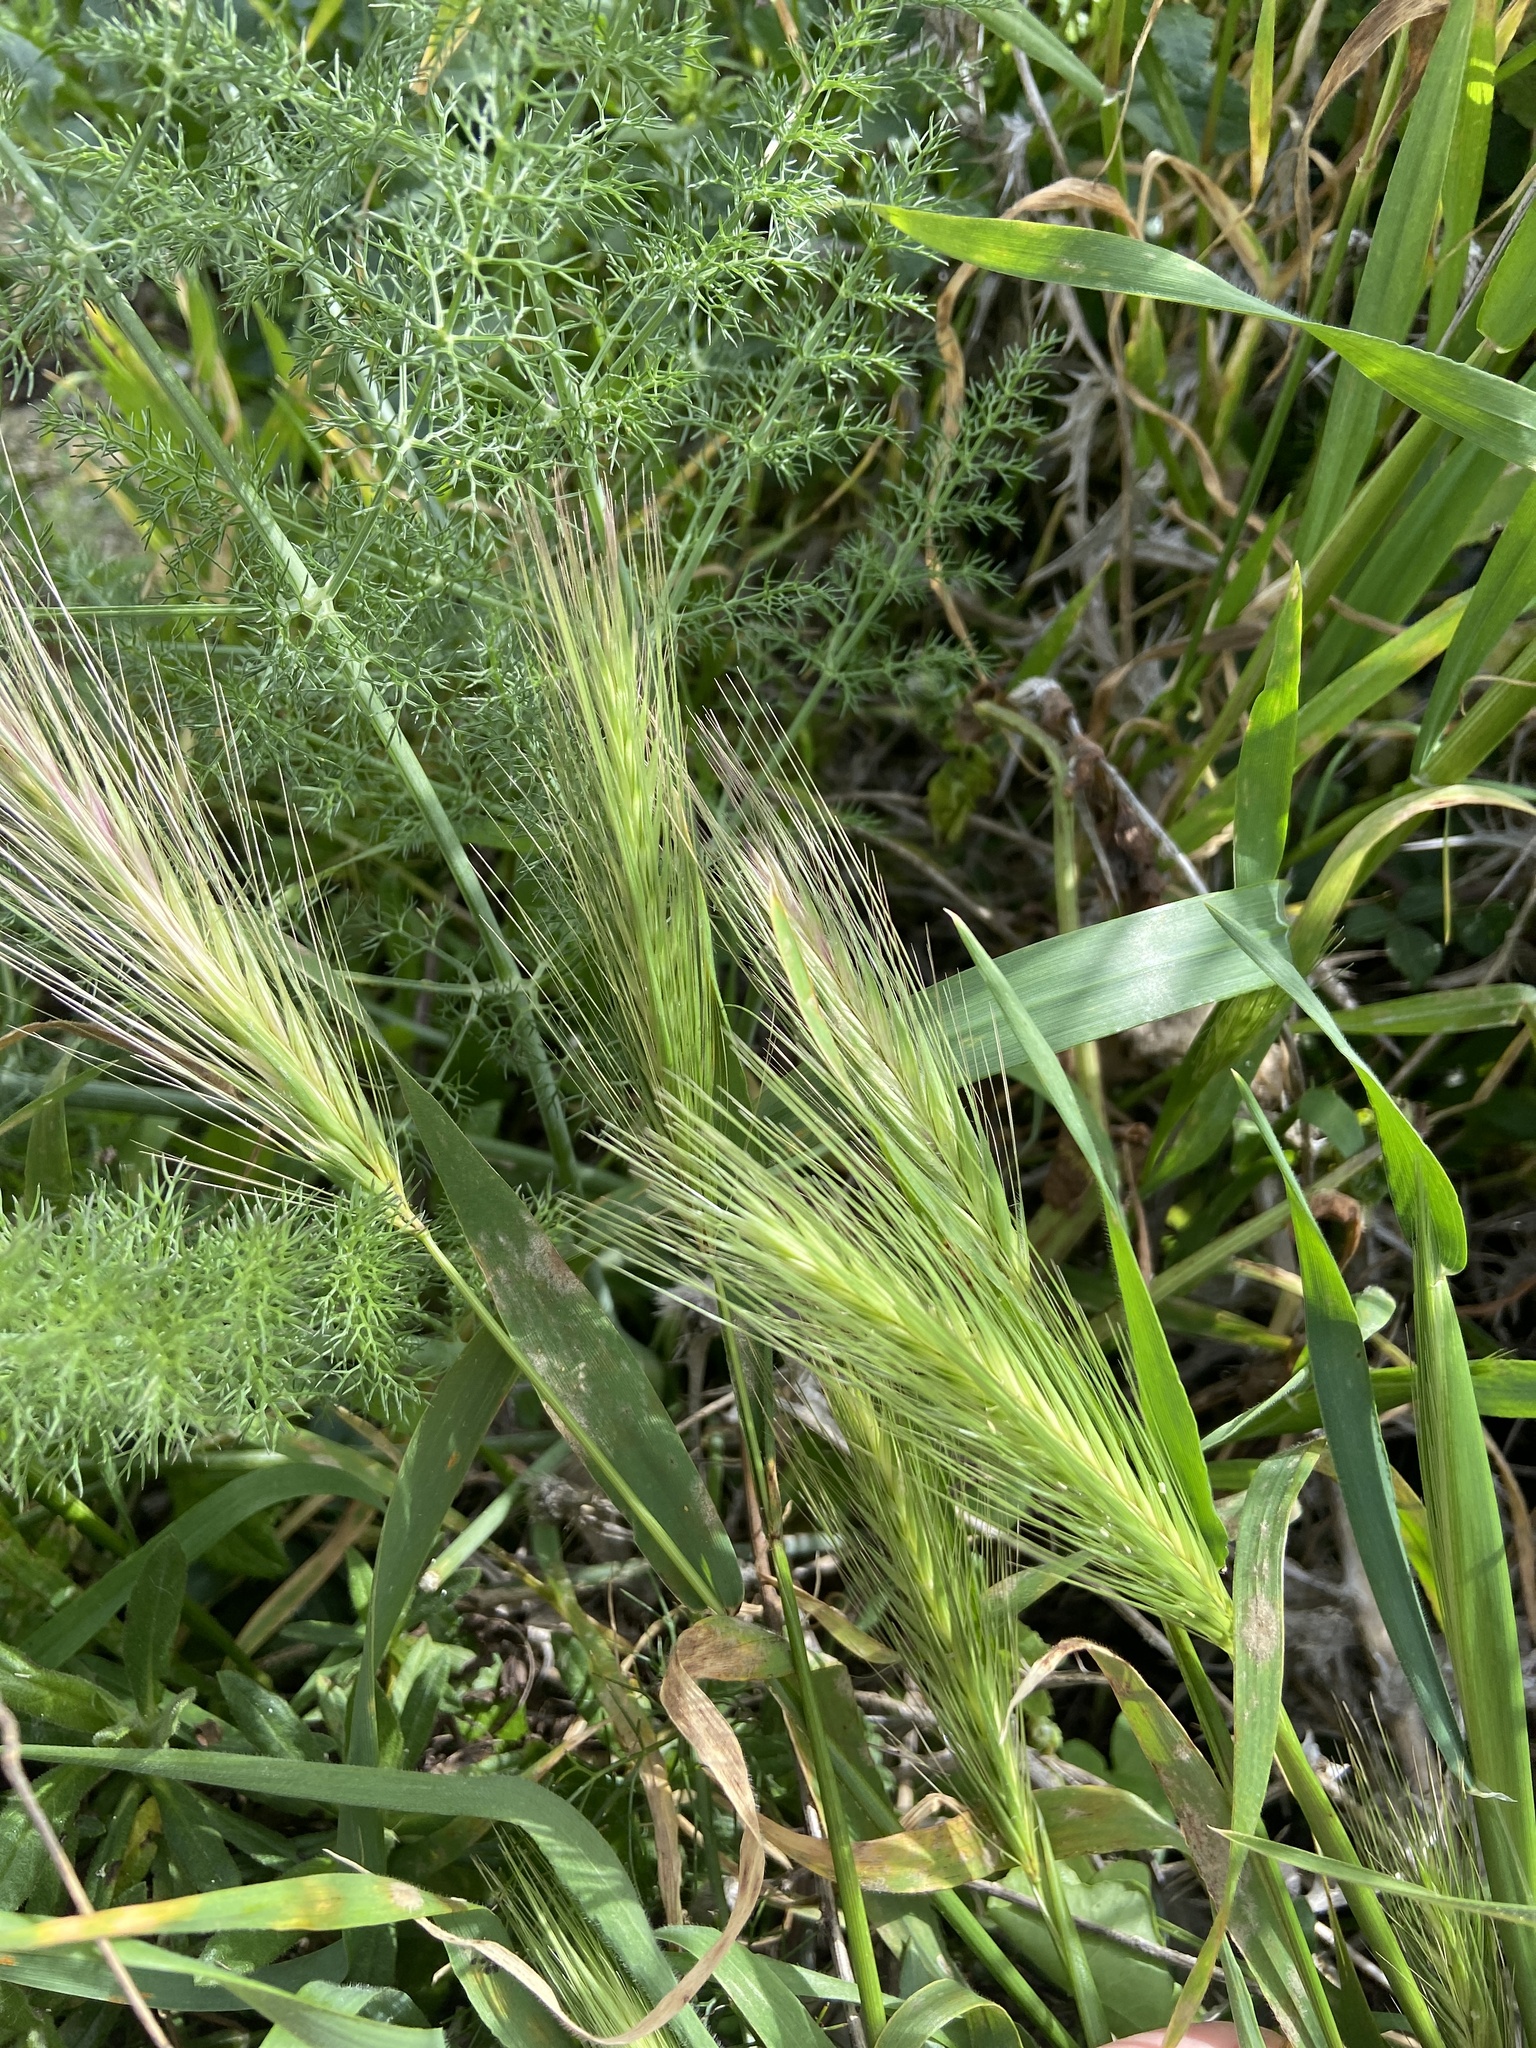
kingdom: Plantae
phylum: Tracheophyta
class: Liliopsida
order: Poales
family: Poaceae
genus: Hordeum
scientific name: Hordeum murinum
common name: Wall barley
